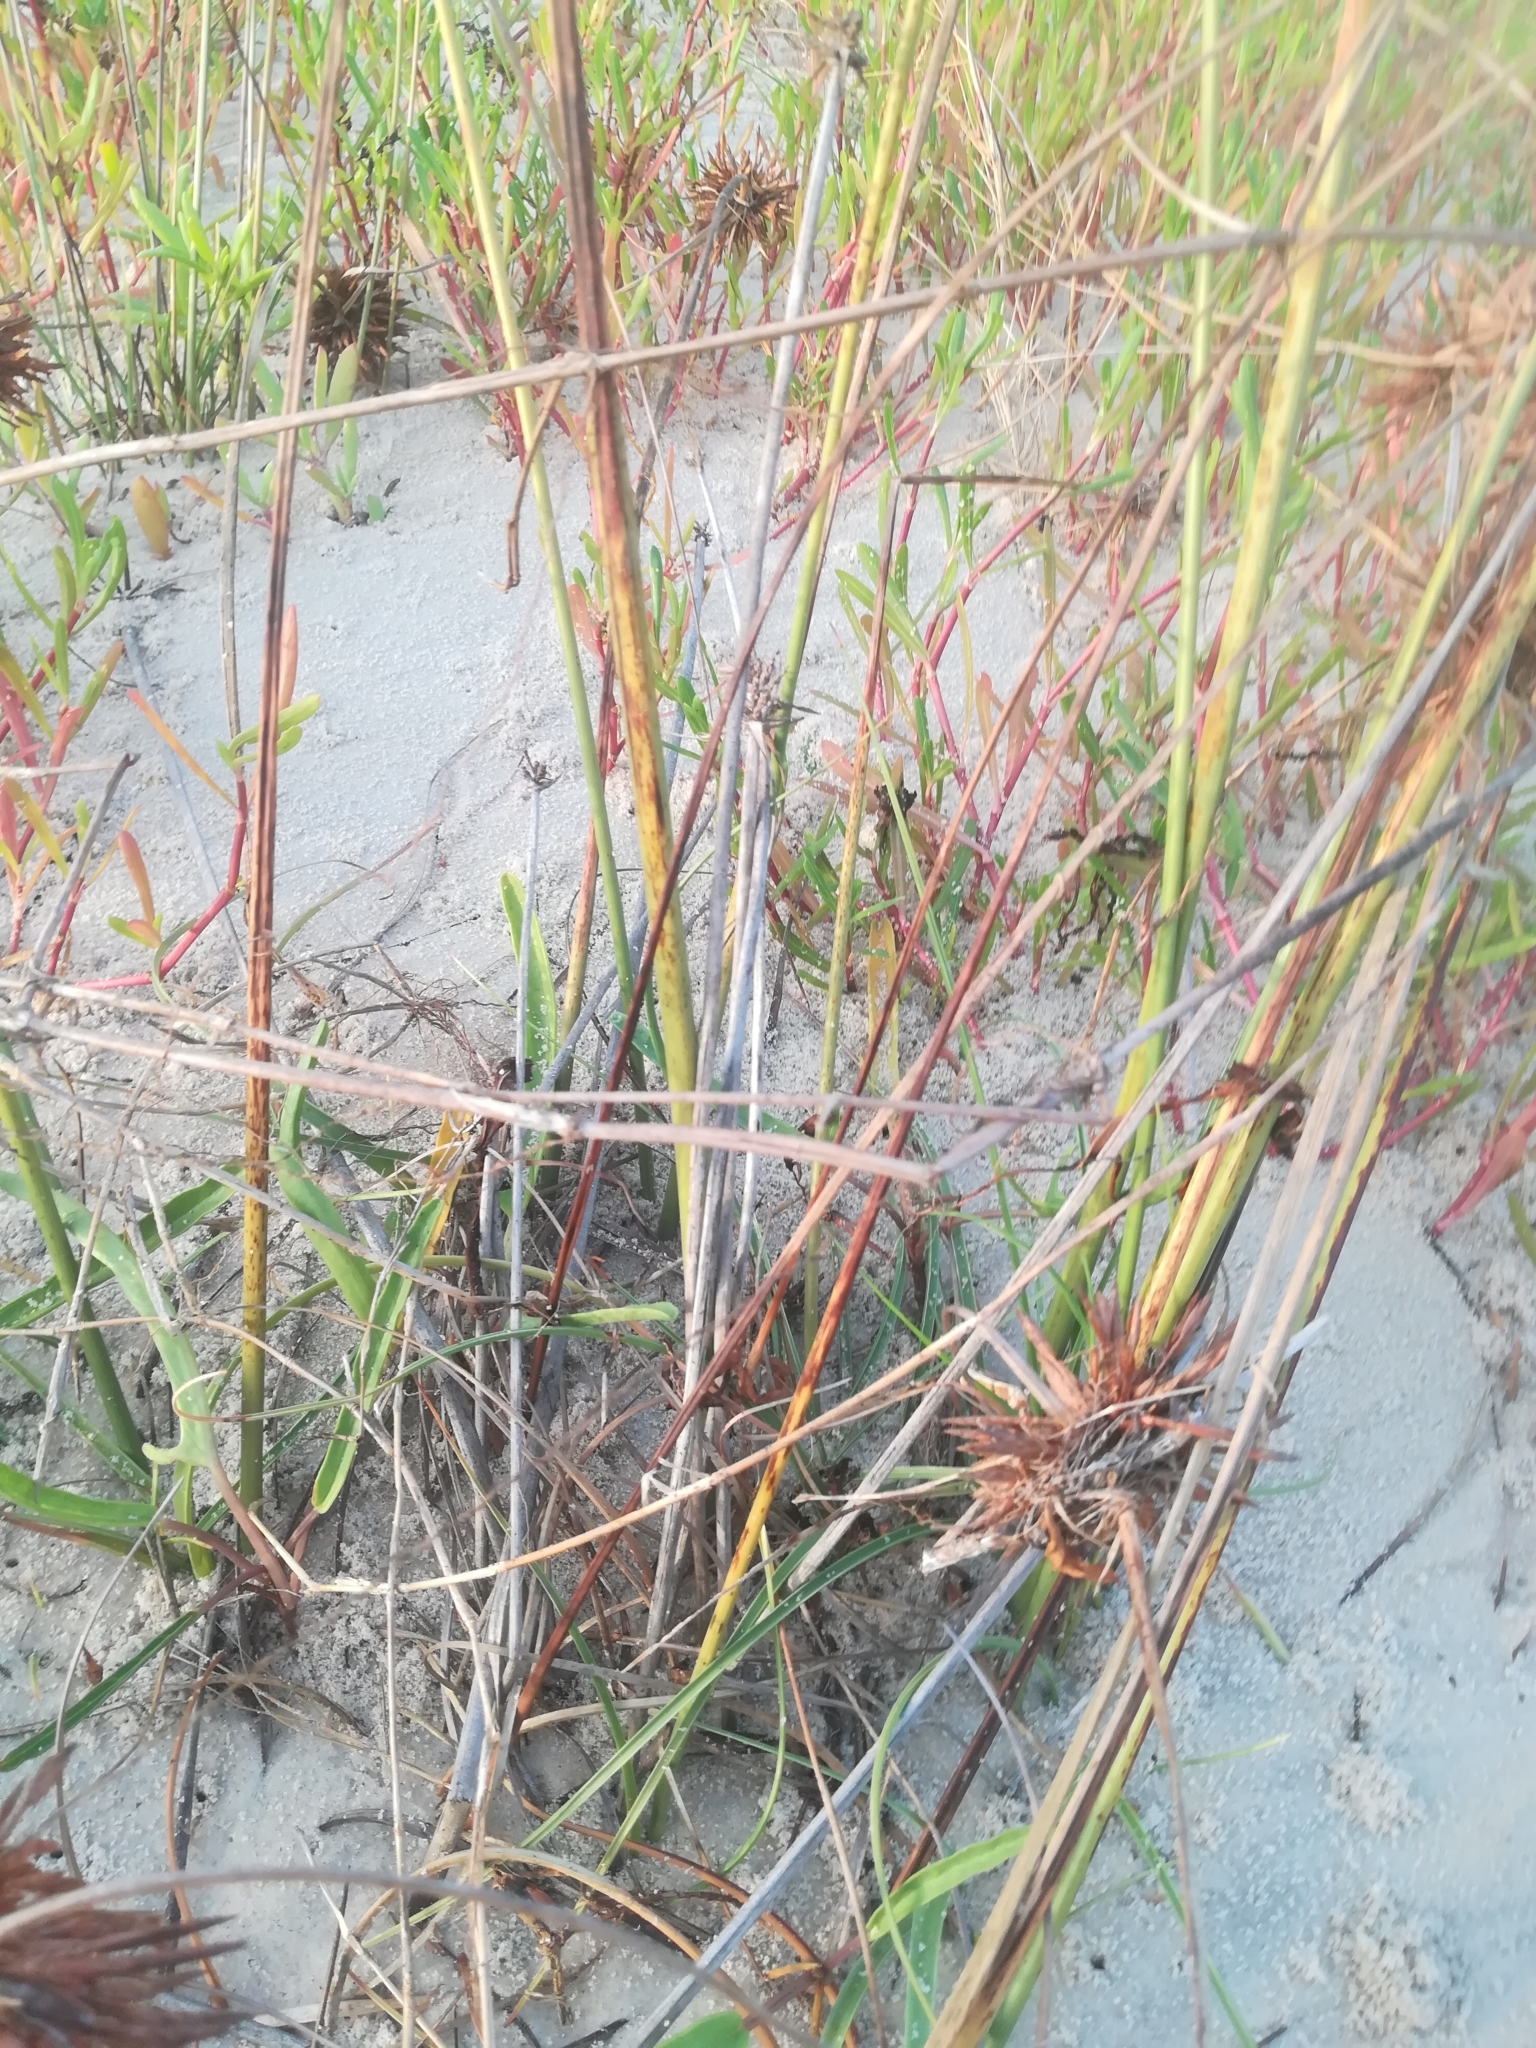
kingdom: Plantae
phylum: Tracheophyta
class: Liliopsida
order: Poales
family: Cyperaceae
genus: Cyperus
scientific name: Cyperus crassipes
